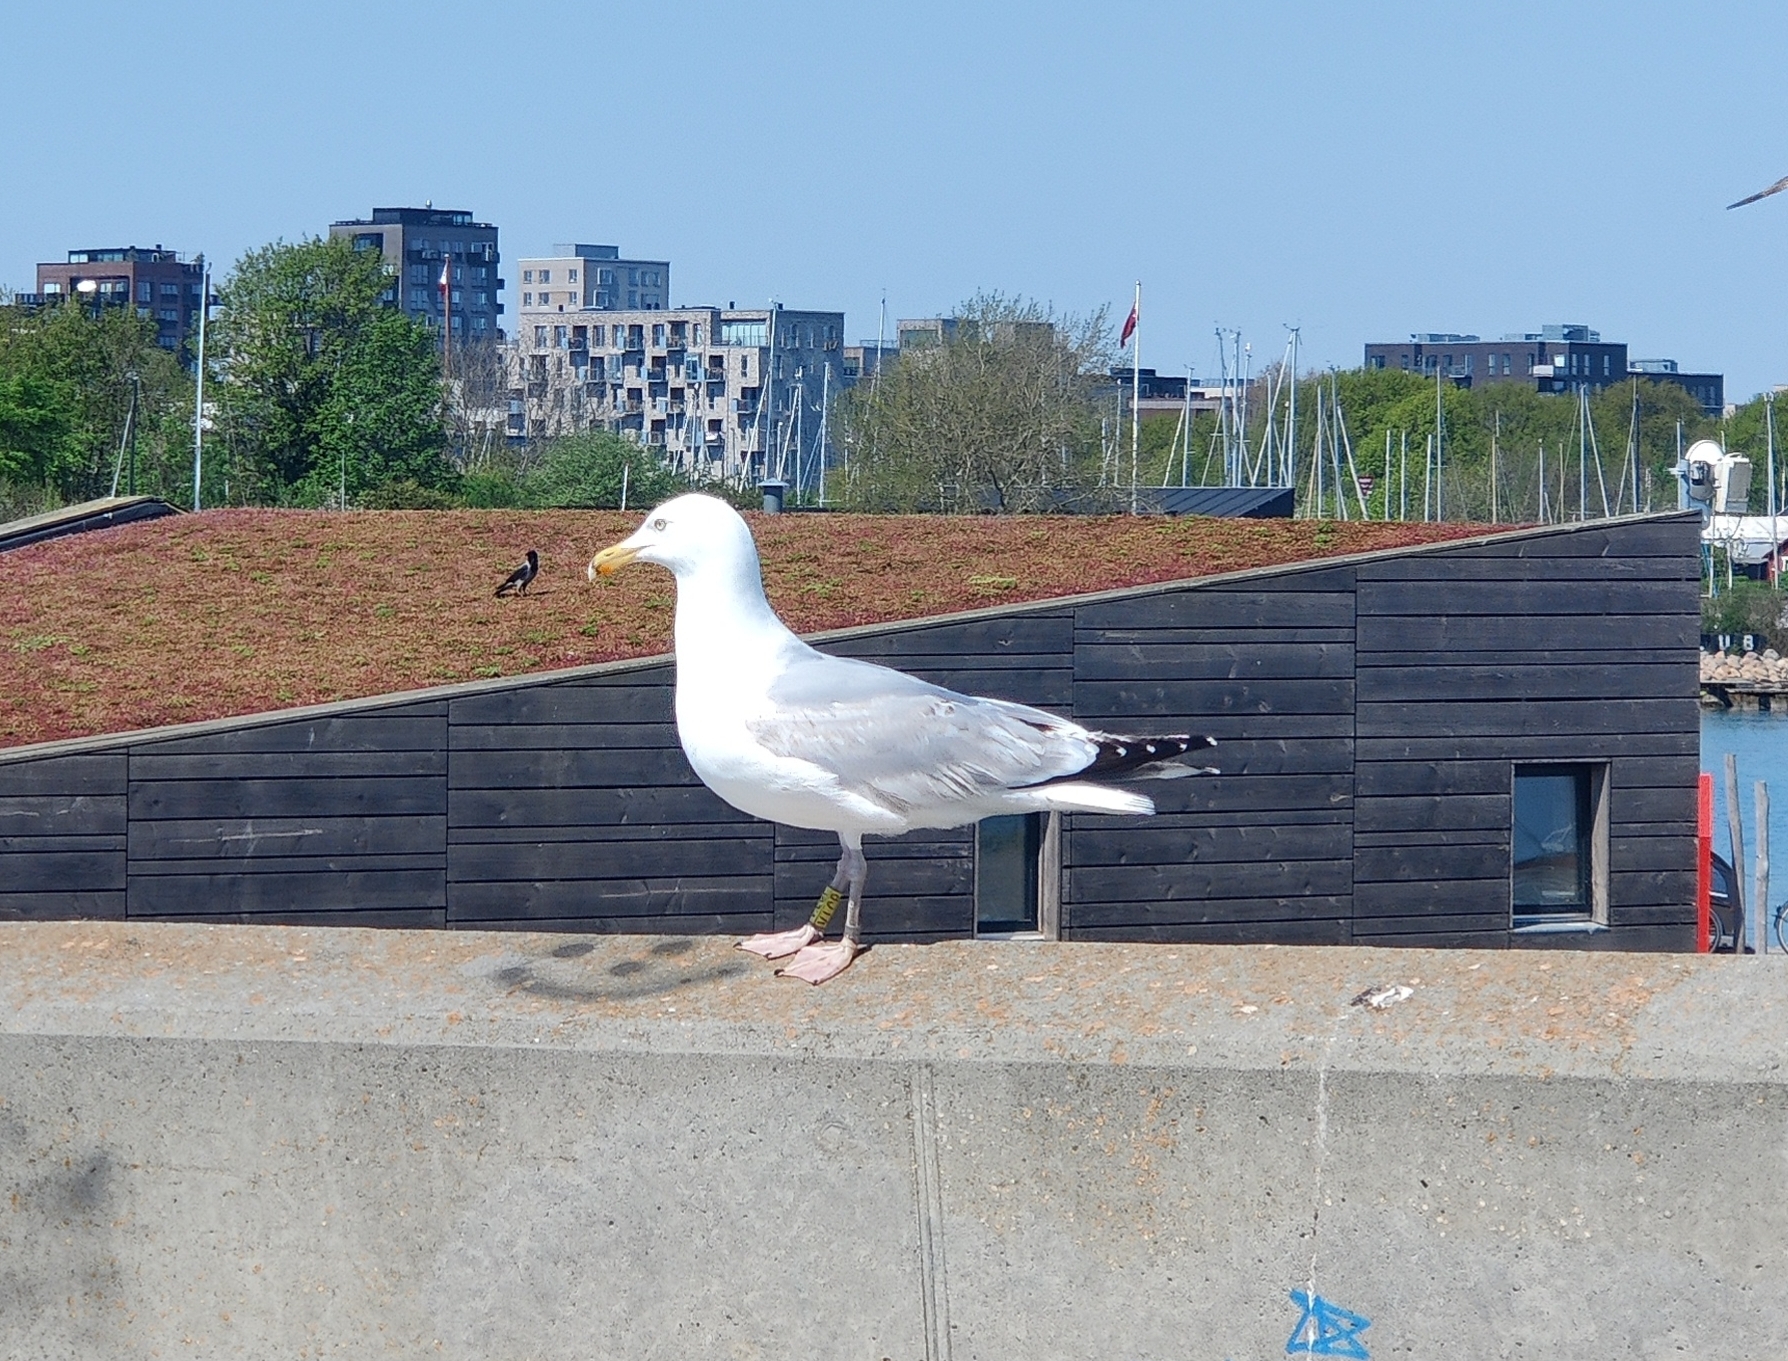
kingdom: Animalia
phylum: Chordata
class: Aves
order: Charadriiformes
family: Laridae
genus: Larus
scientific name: Larus argentatus
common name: Herring gull
